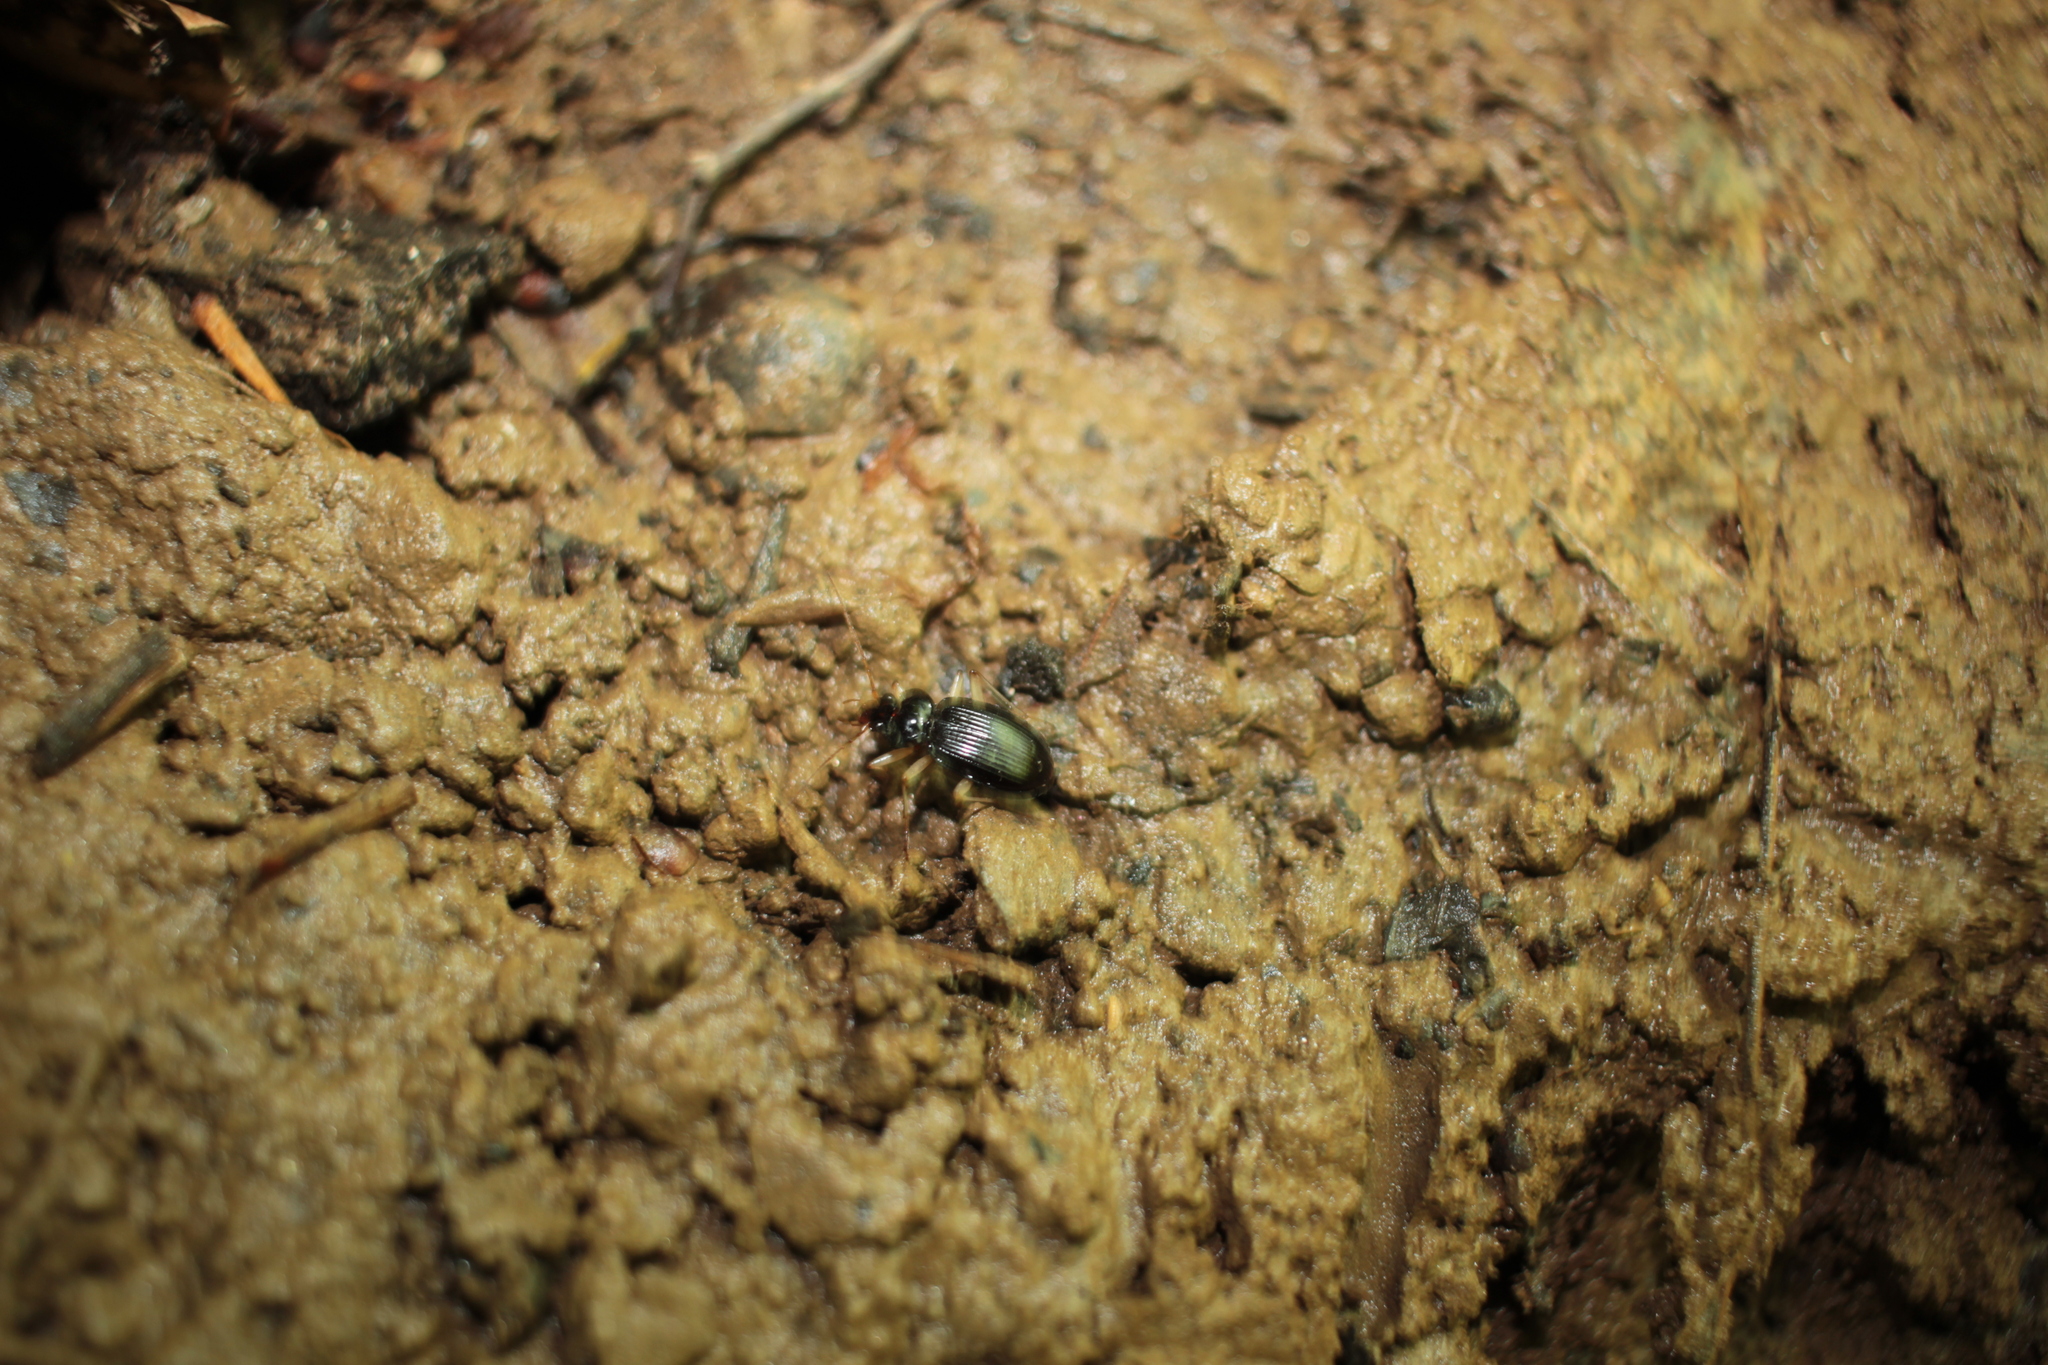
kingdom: Animalia
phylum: Arthropoda
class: Insecta
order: Coleoptera
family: Carabidae
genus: Nebria
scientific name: Nebria lacustris
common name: Lacustrine gazelle beetle
